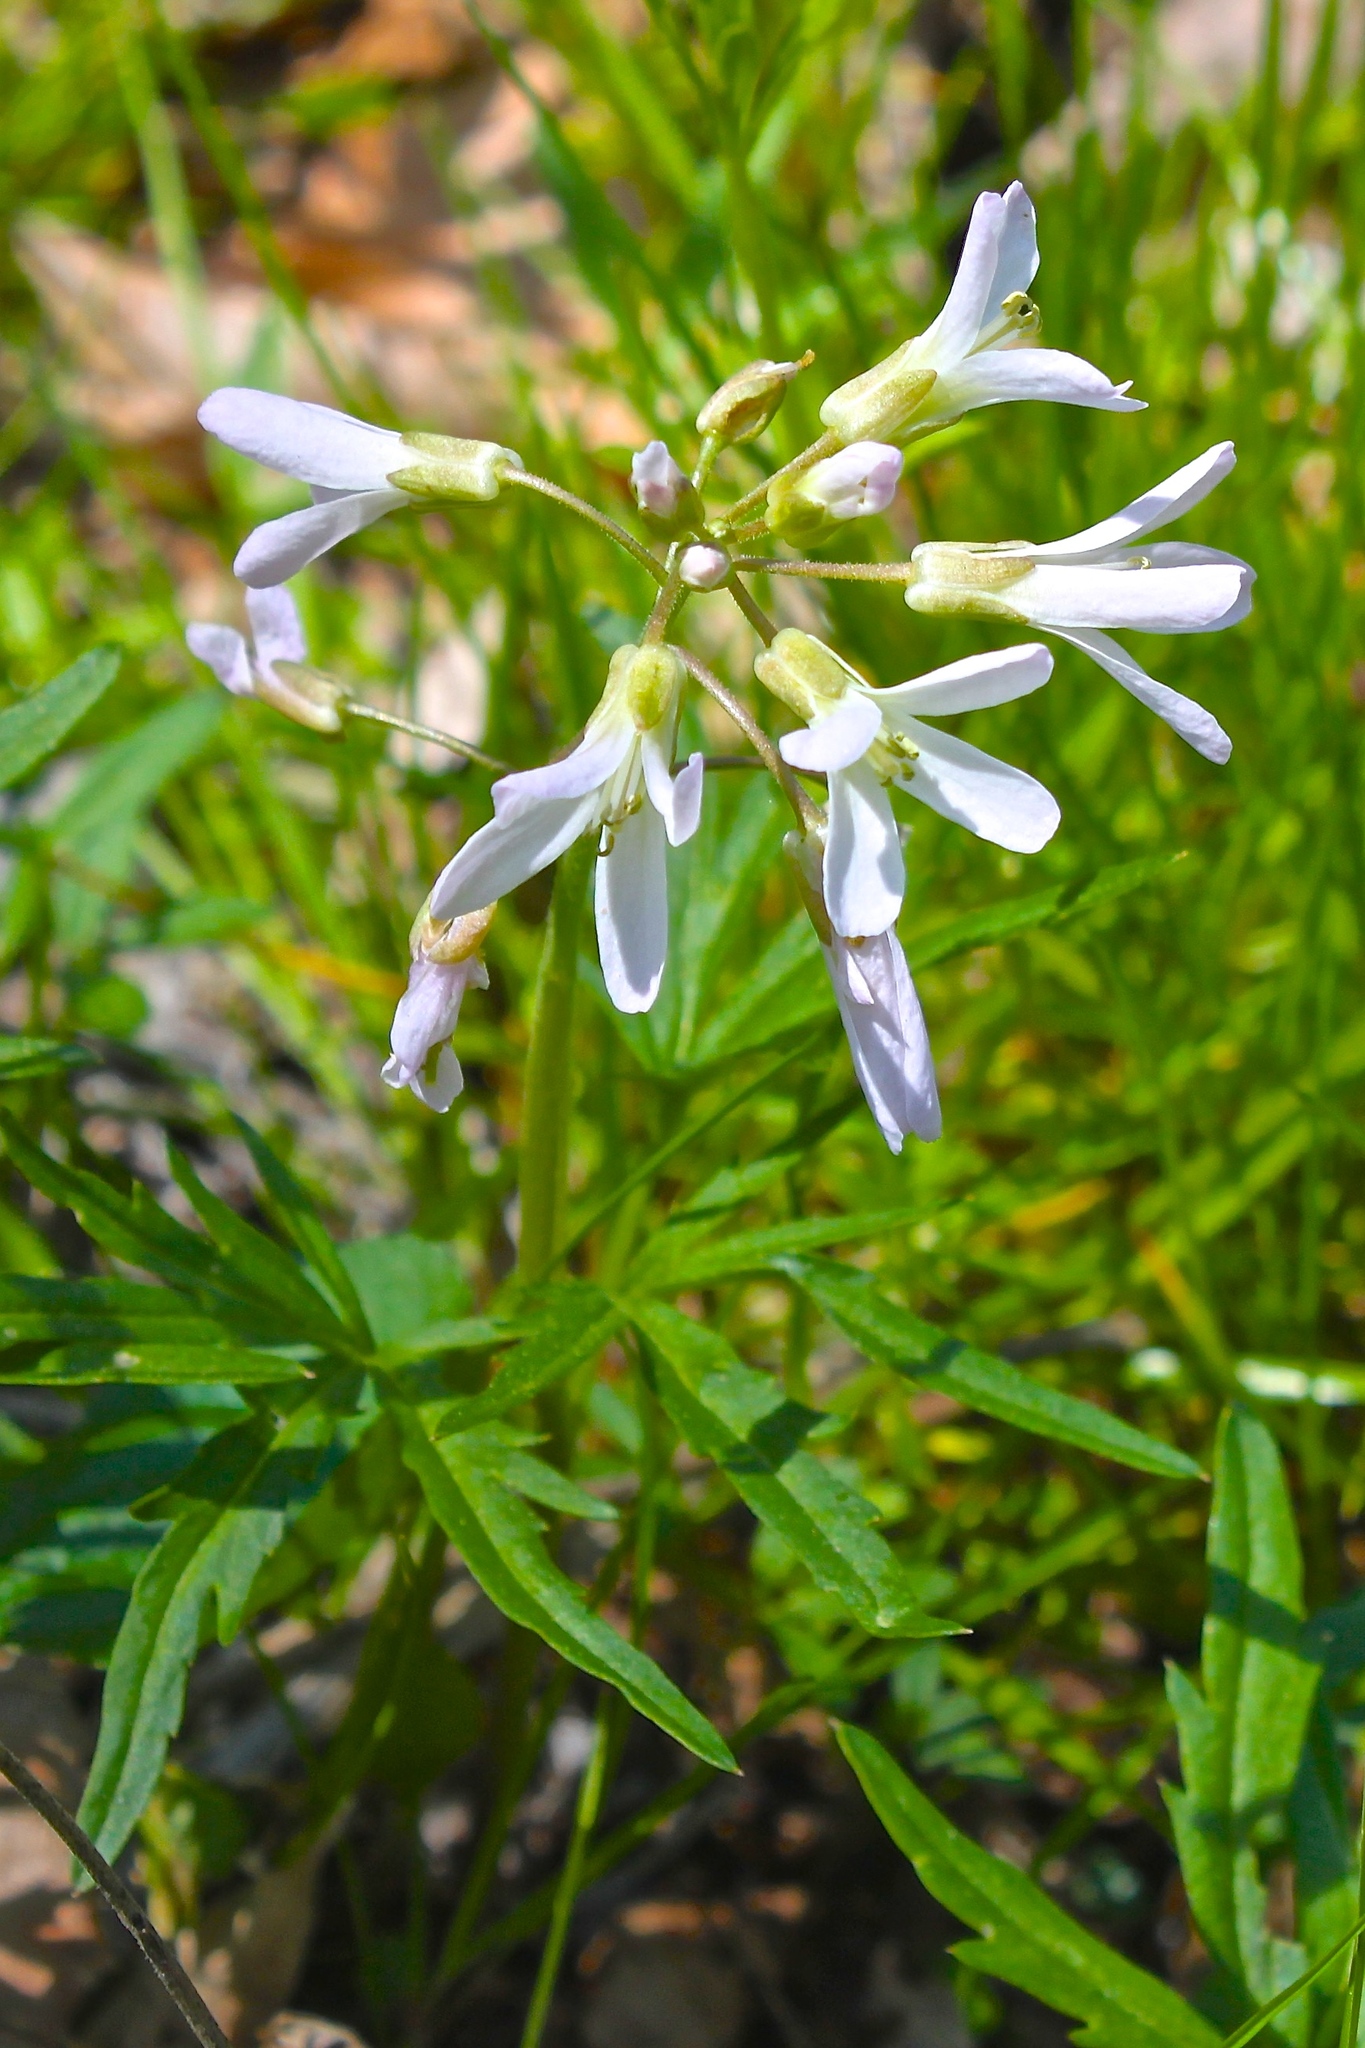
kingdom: Plantae
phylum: Tracheophyta
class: Magnoliopsida
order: Brassicales
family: Brassicaceae
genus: Cardamine
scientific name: Cardamine concatenata
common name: Cut-leaf toothcup
